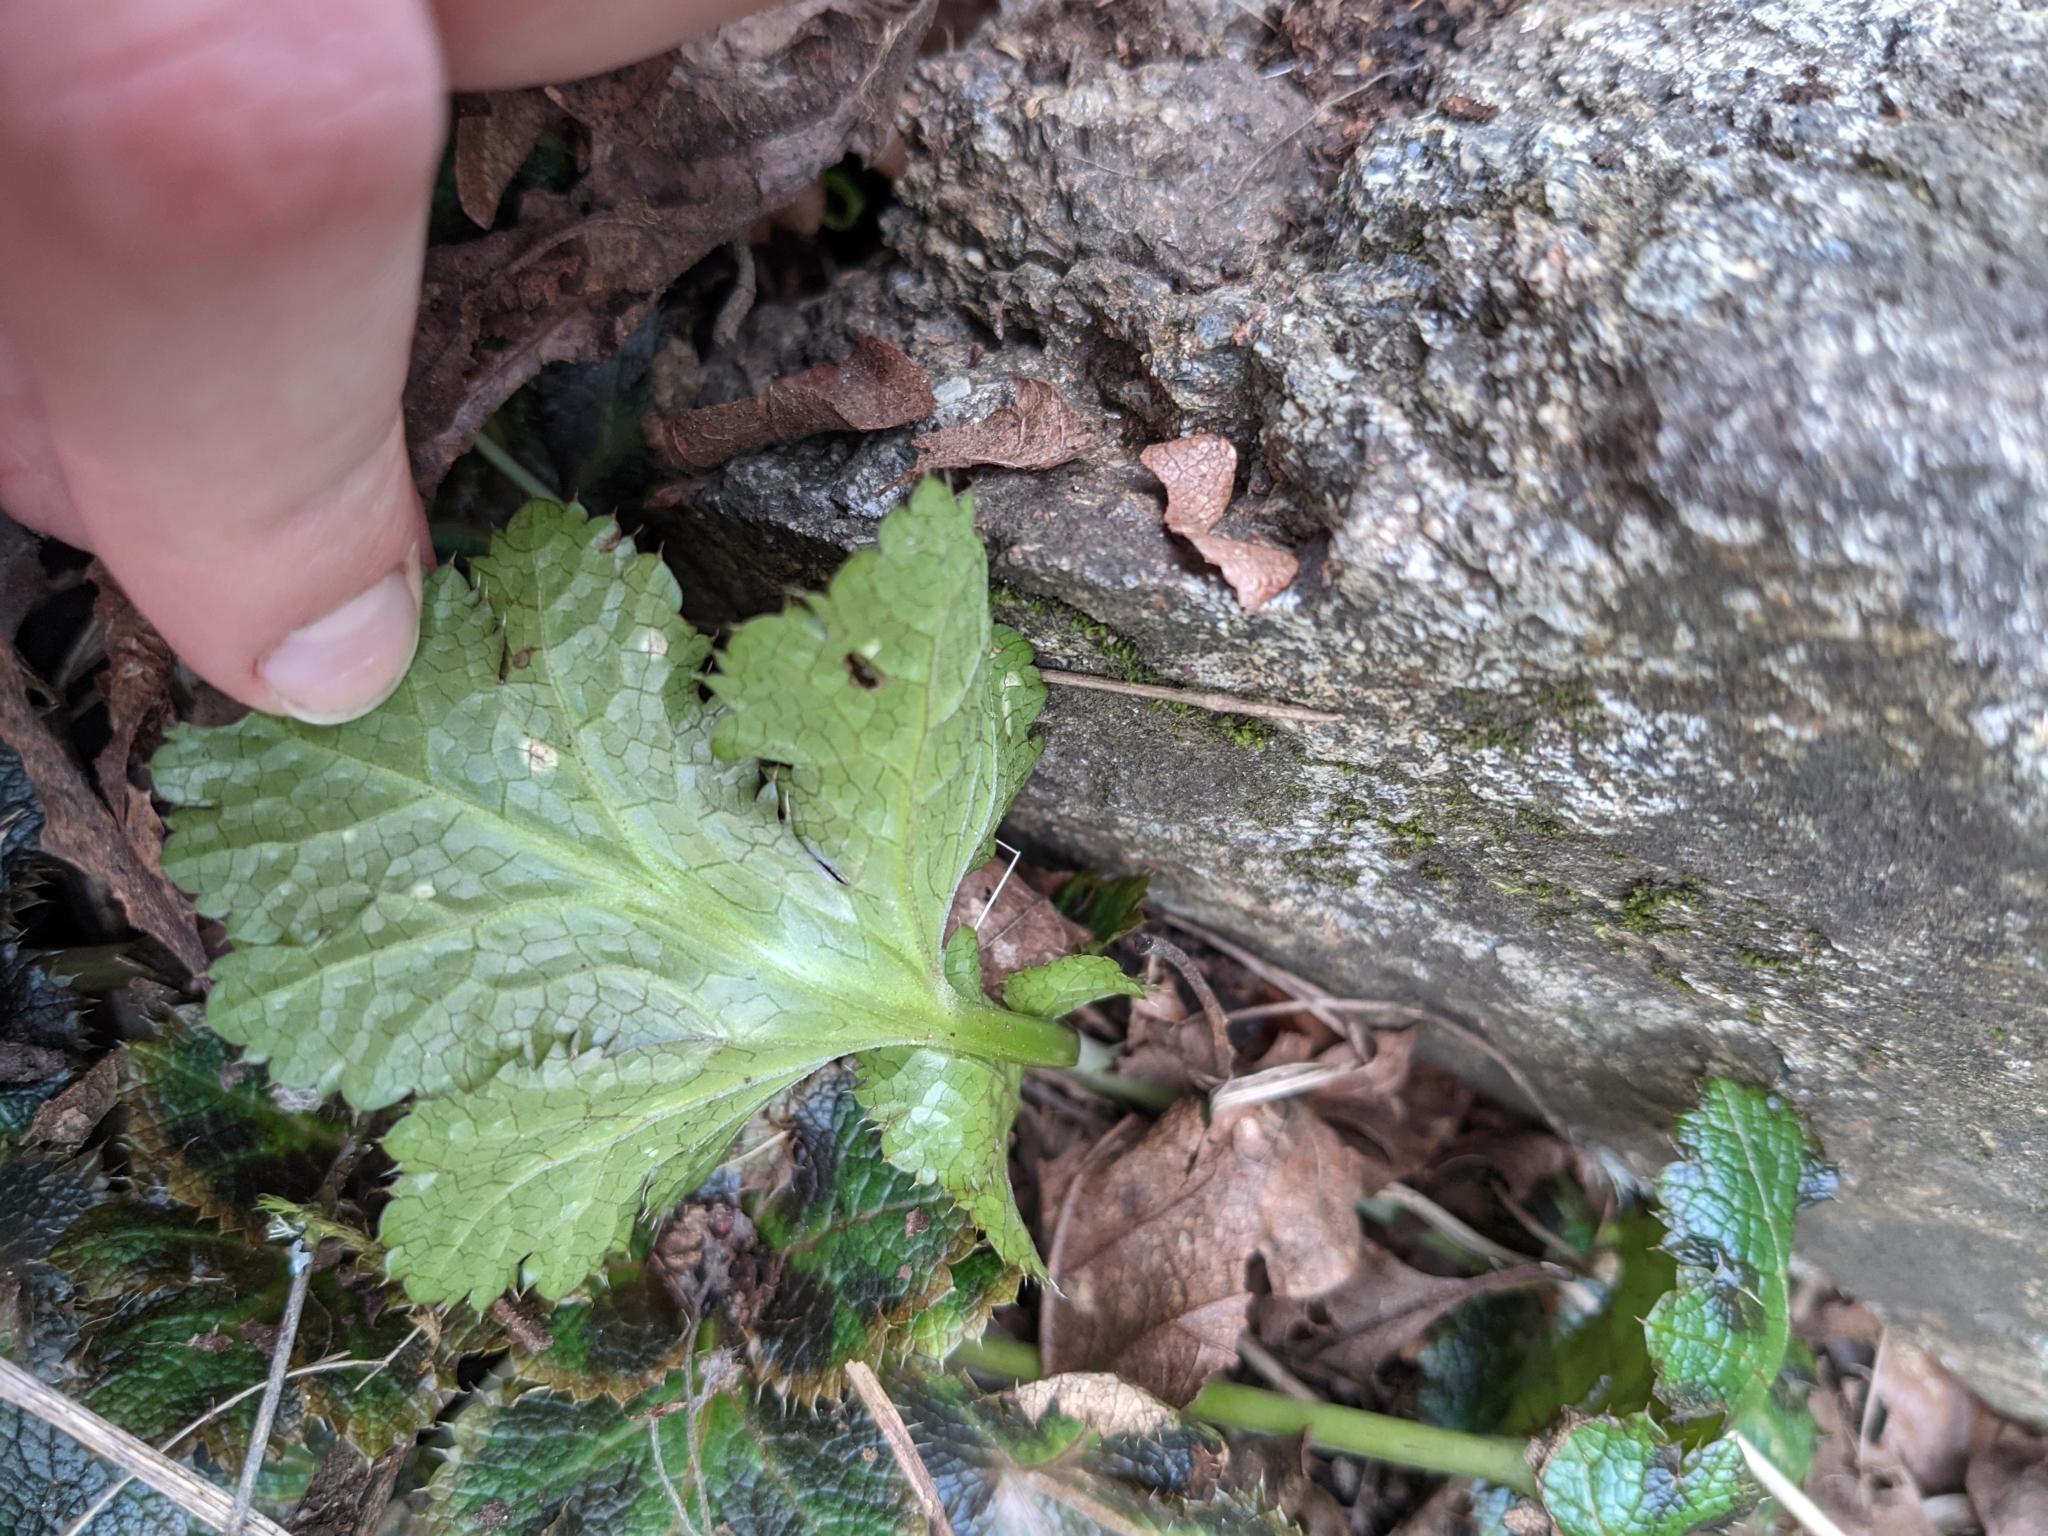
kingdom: Plantae
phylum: Tracheophyta
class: Magnoliopsida
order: Apiales
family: Apiaceae
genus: Sanicula
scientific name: Sanicula crassicaulis
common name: Western snakeroot
